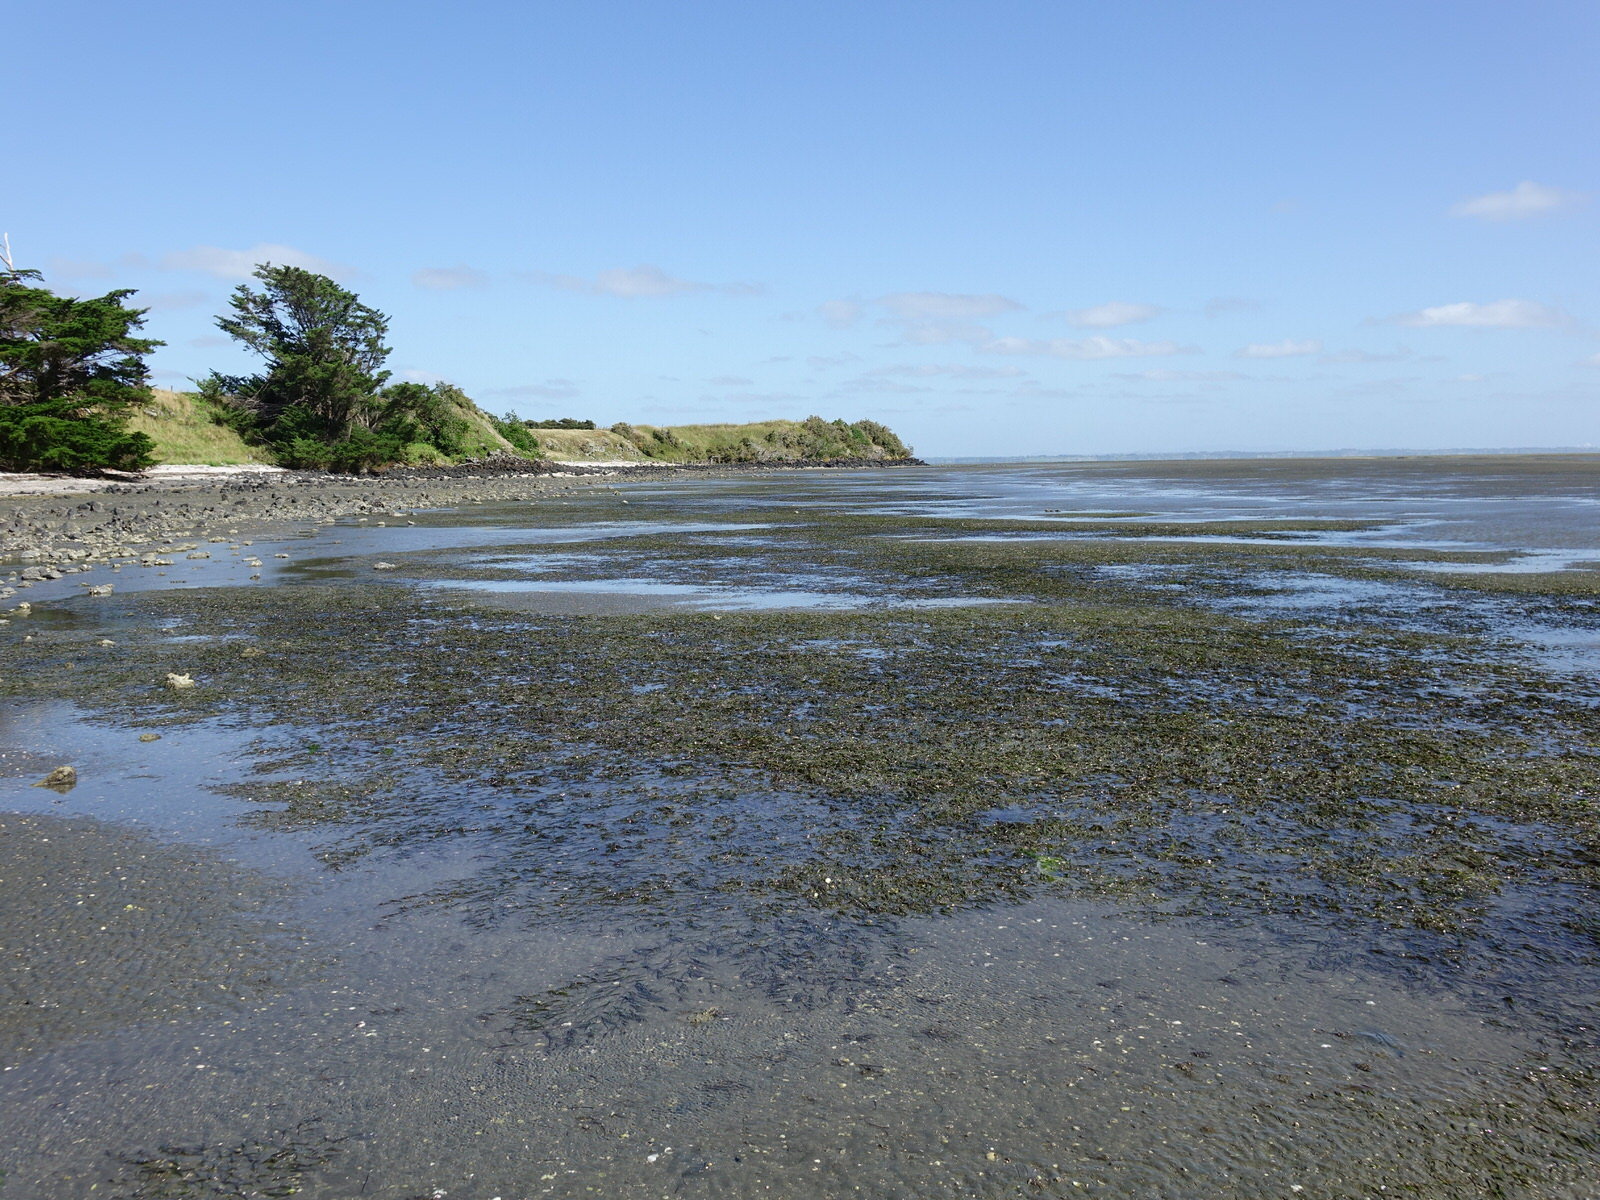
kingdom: Plantae
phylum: Tracheophyta
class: Liliopsida
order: Alismatales
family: Zosteraceae
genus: Zostera
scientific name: Zostera novazelandica
